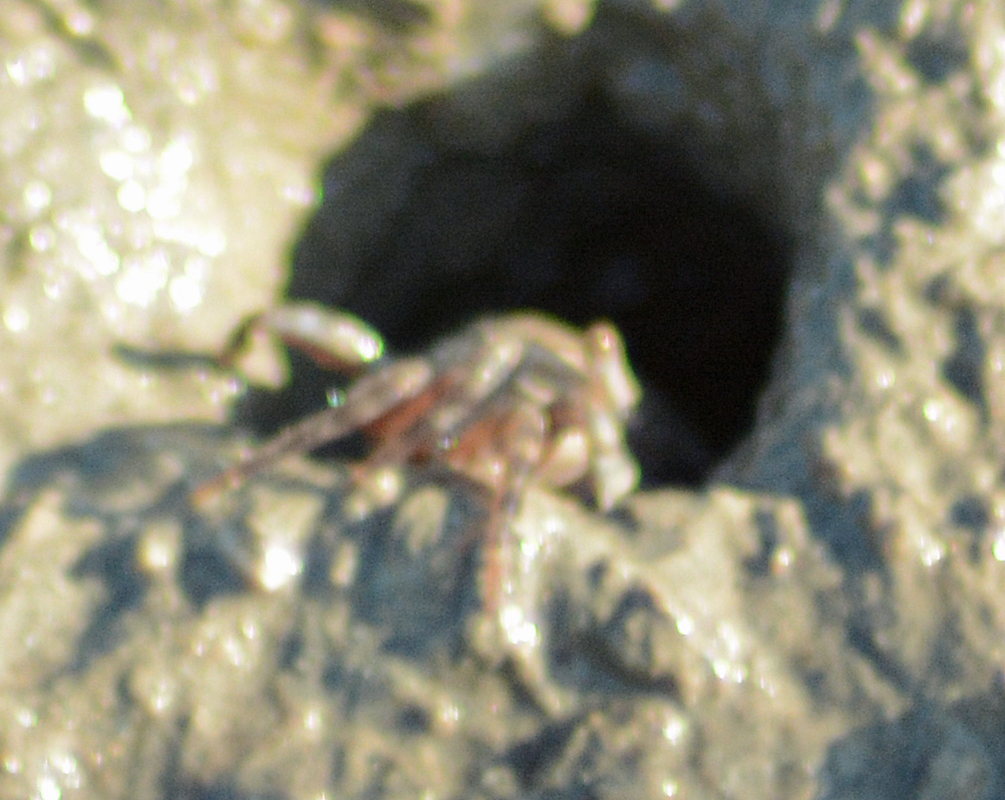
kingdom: Animalia
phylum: Arthropoda
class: Malacostraca
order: Decapoda
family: Grapsidae
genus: Grapsus
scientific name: Grapsus grapsus
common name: Sally lightfoot
